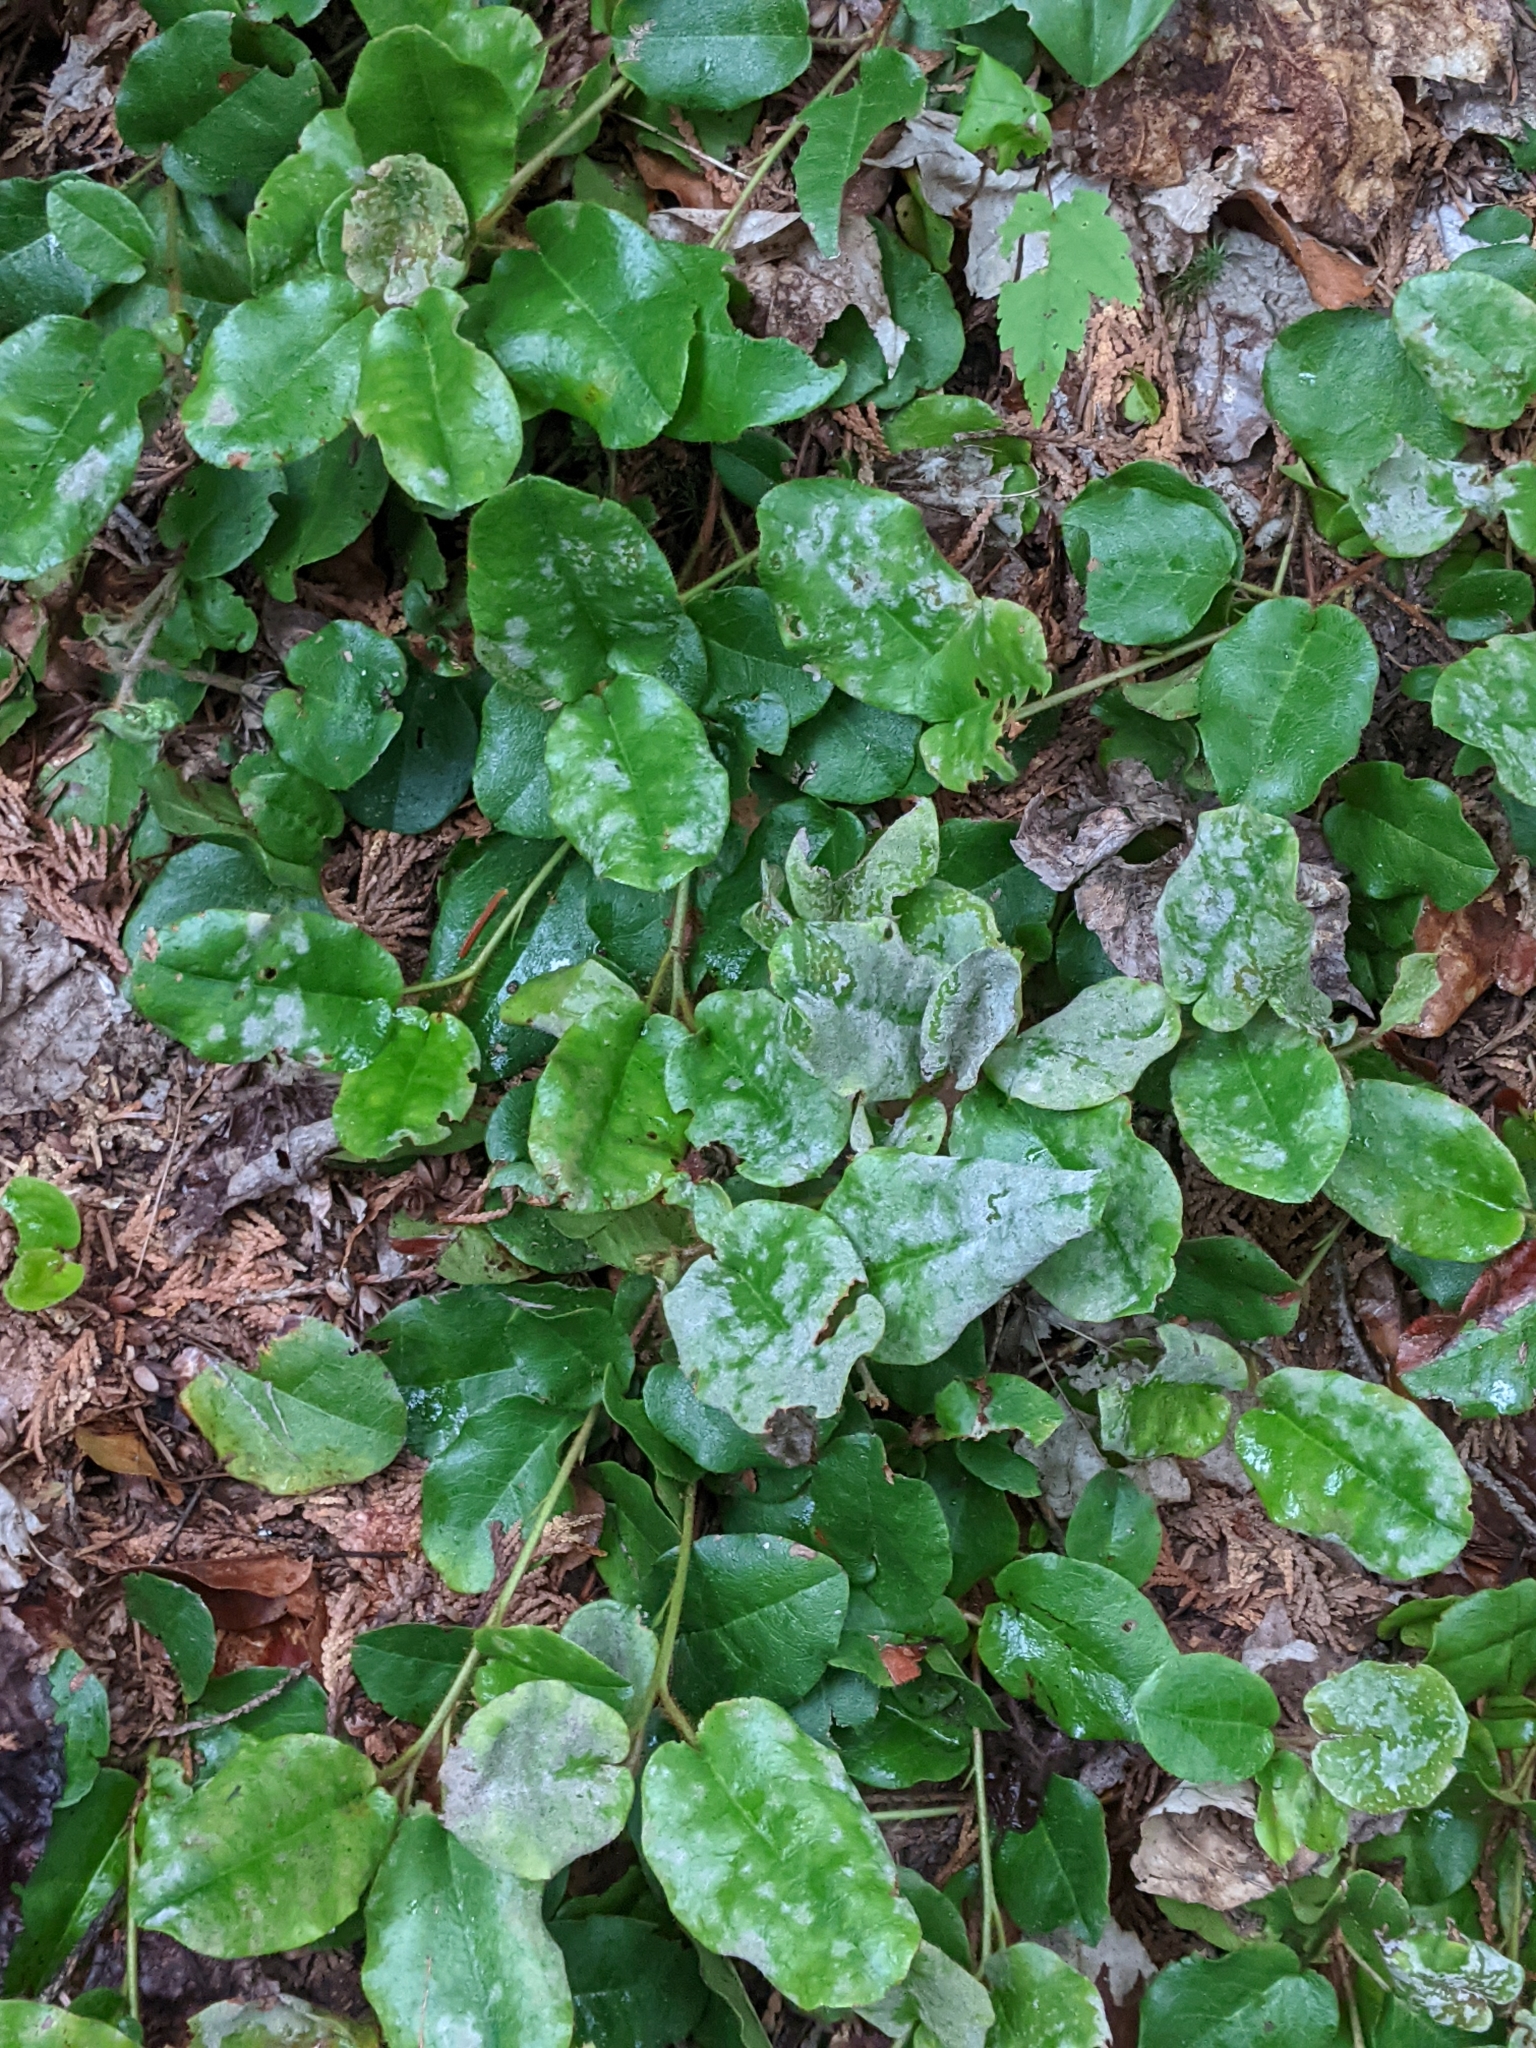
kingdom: Plantae
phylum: Tracheophyta
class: Magnoliopsida
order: Ericales
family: Ericaceae
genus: Epigaea
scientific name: Epigaea repens
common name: Gravelroot
